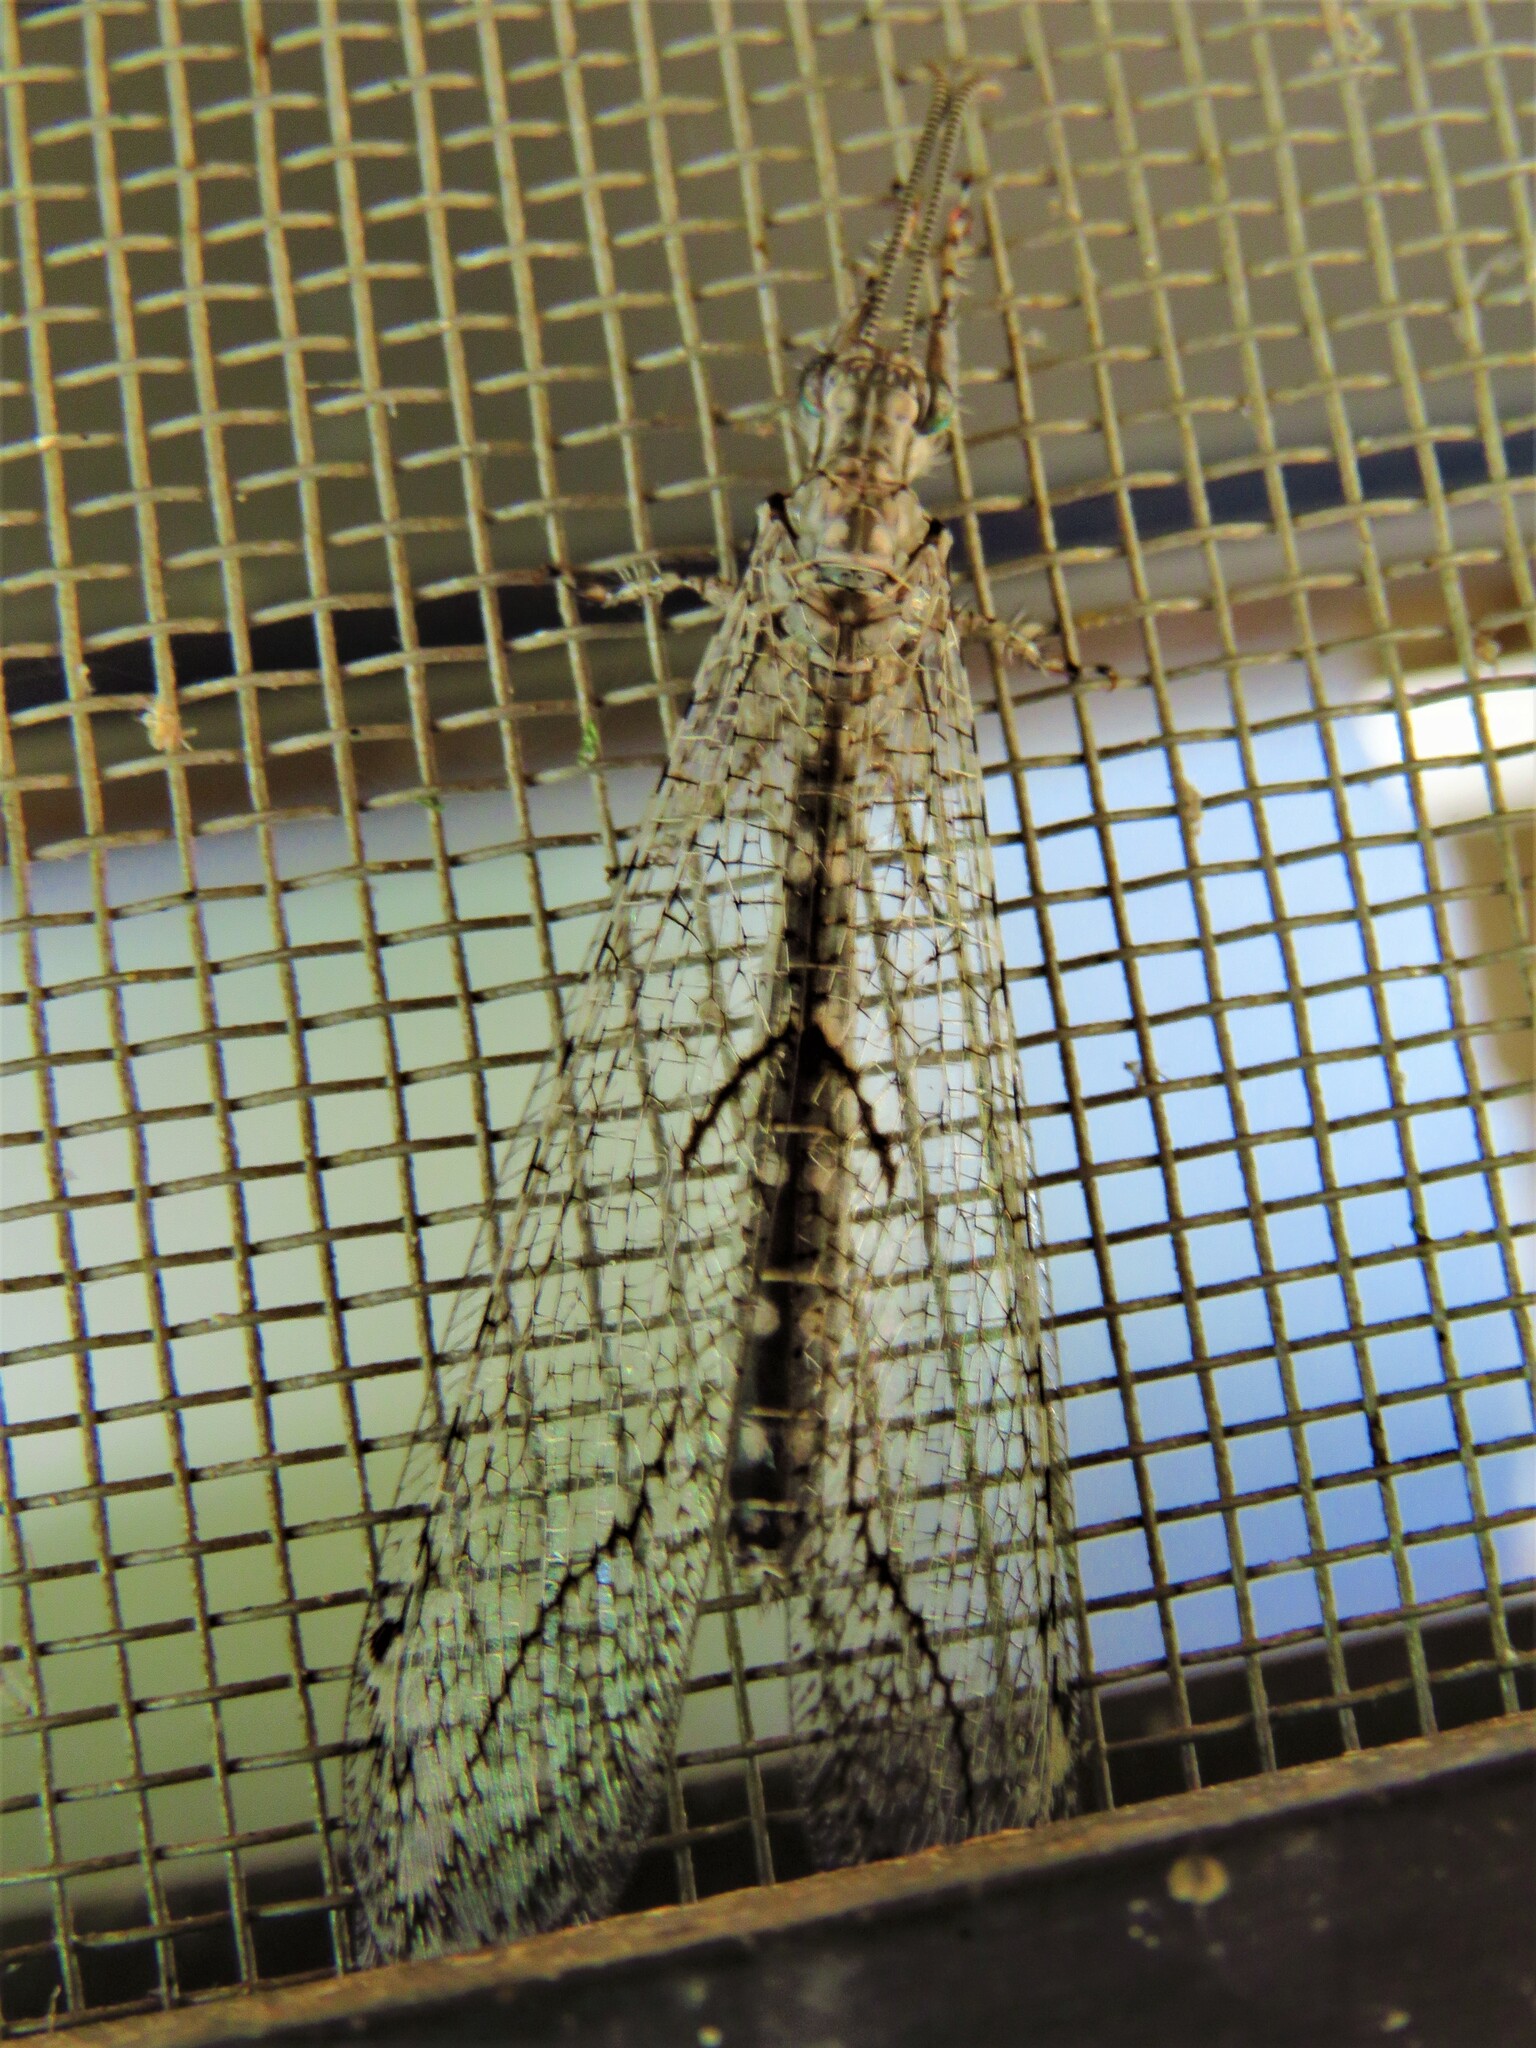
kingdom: Animalia
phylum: Arthropoda
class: Insecta
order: Neuroptera
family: Myrmeleontidae
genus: Euptilon
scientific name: Euptilon ornatum
